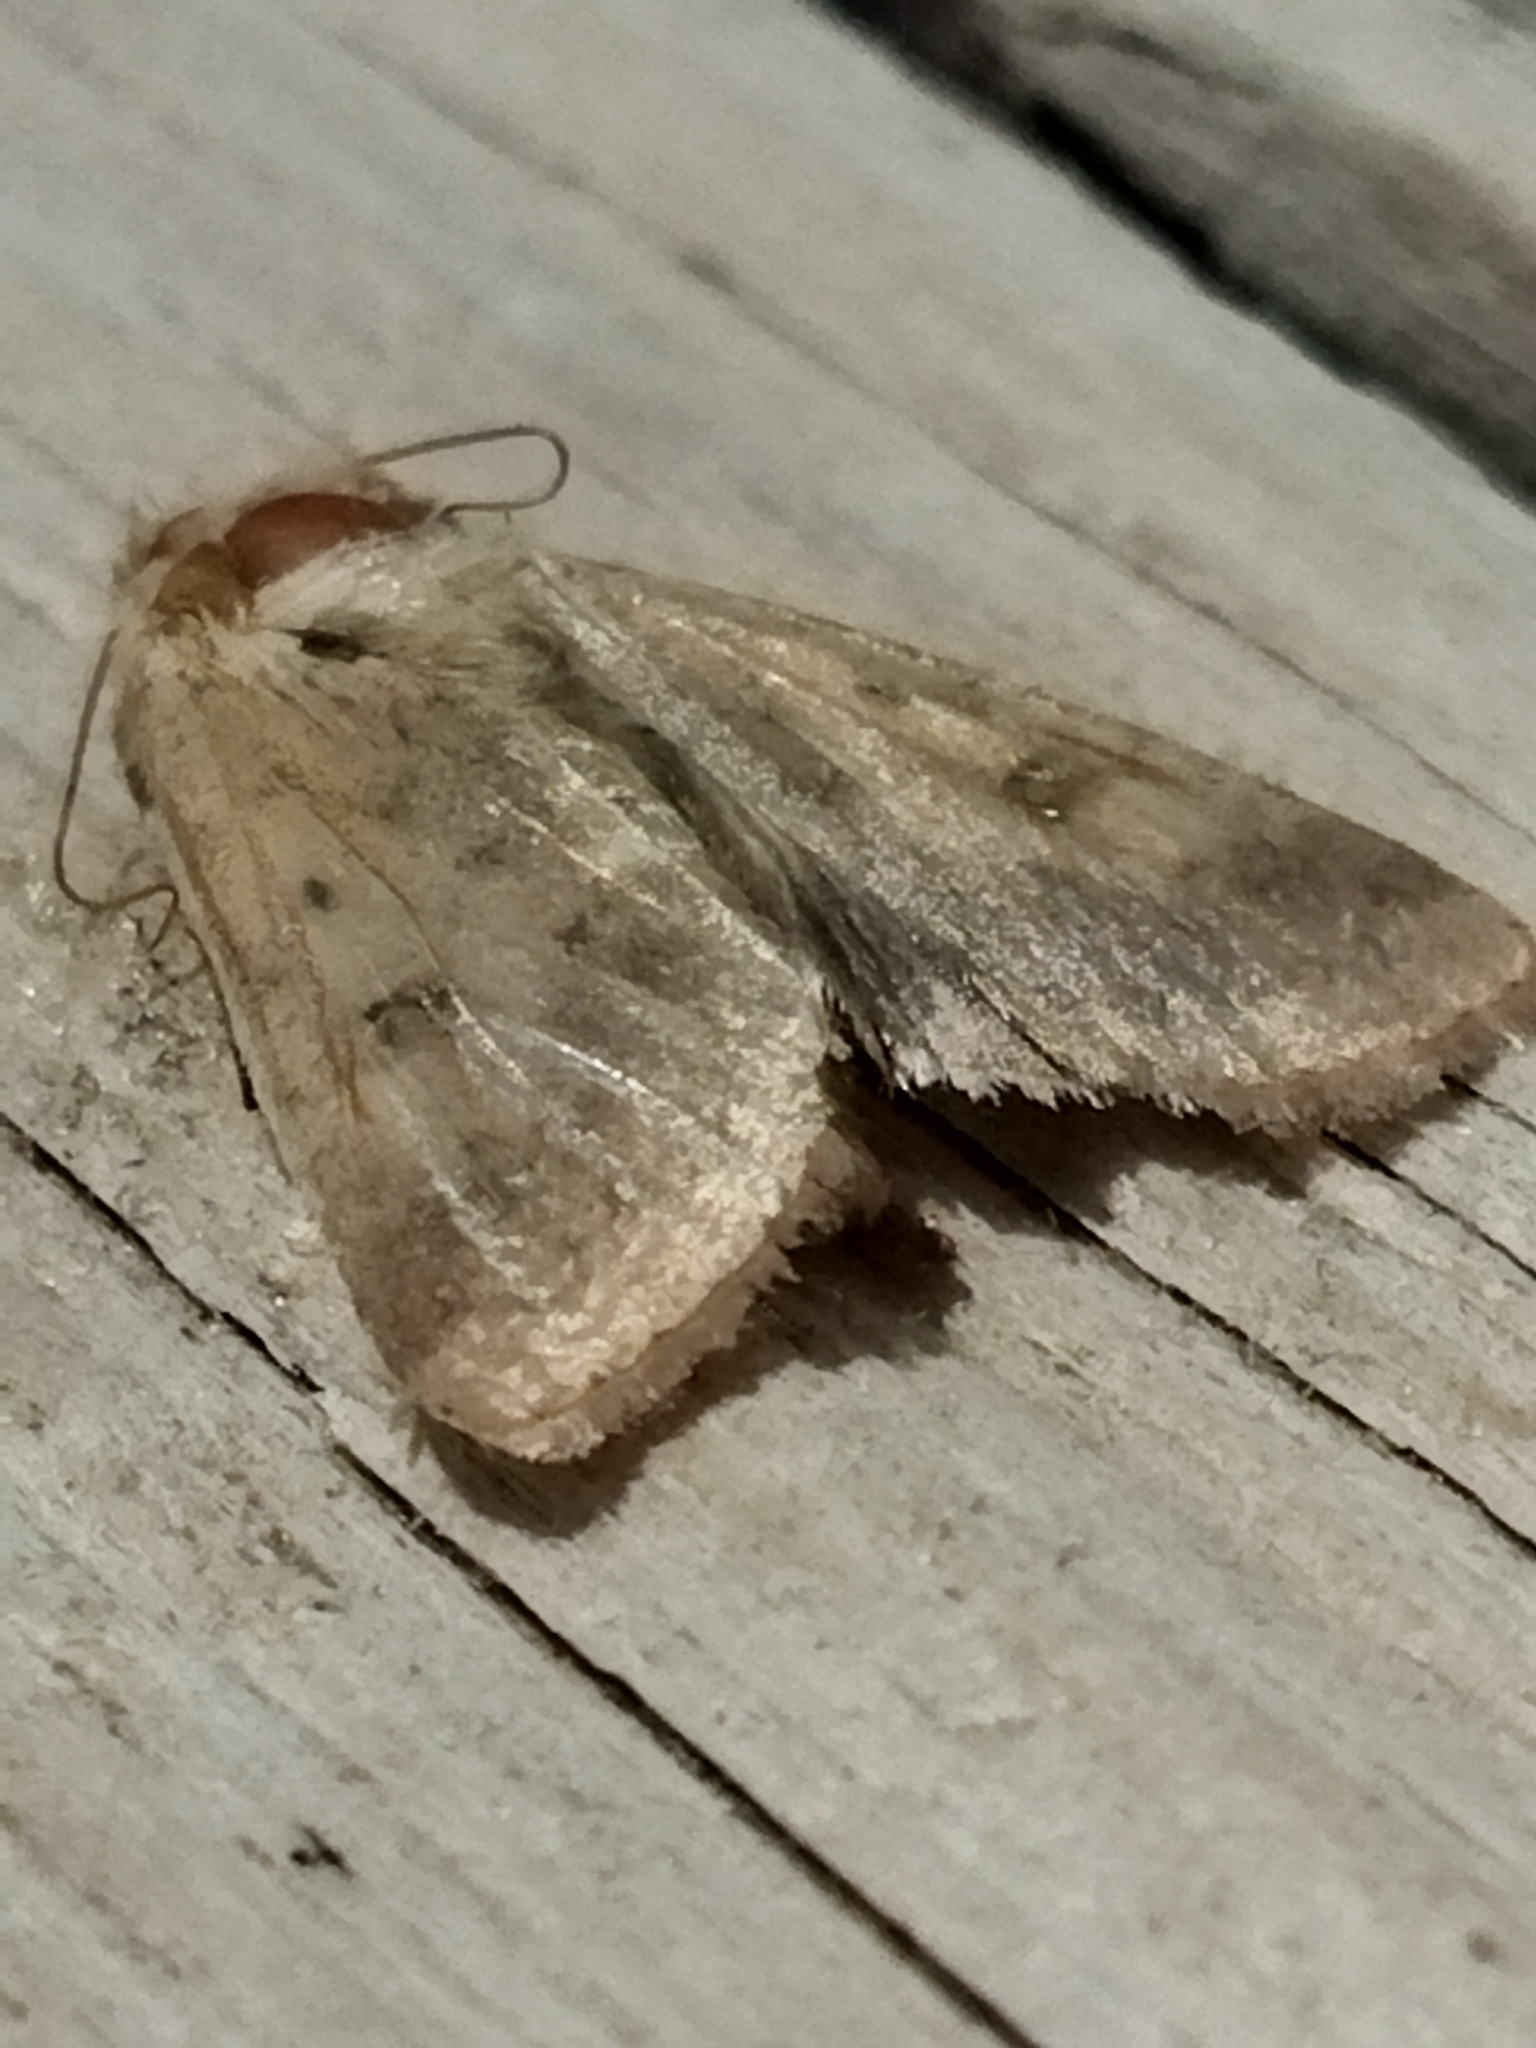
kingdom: Animalia
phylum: Arthropoda
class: Insecta
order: Lepidoptera
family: Noctuidae
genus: Helicoverpa
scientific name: Helicoverpa armigera
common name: Cotton bollworm
